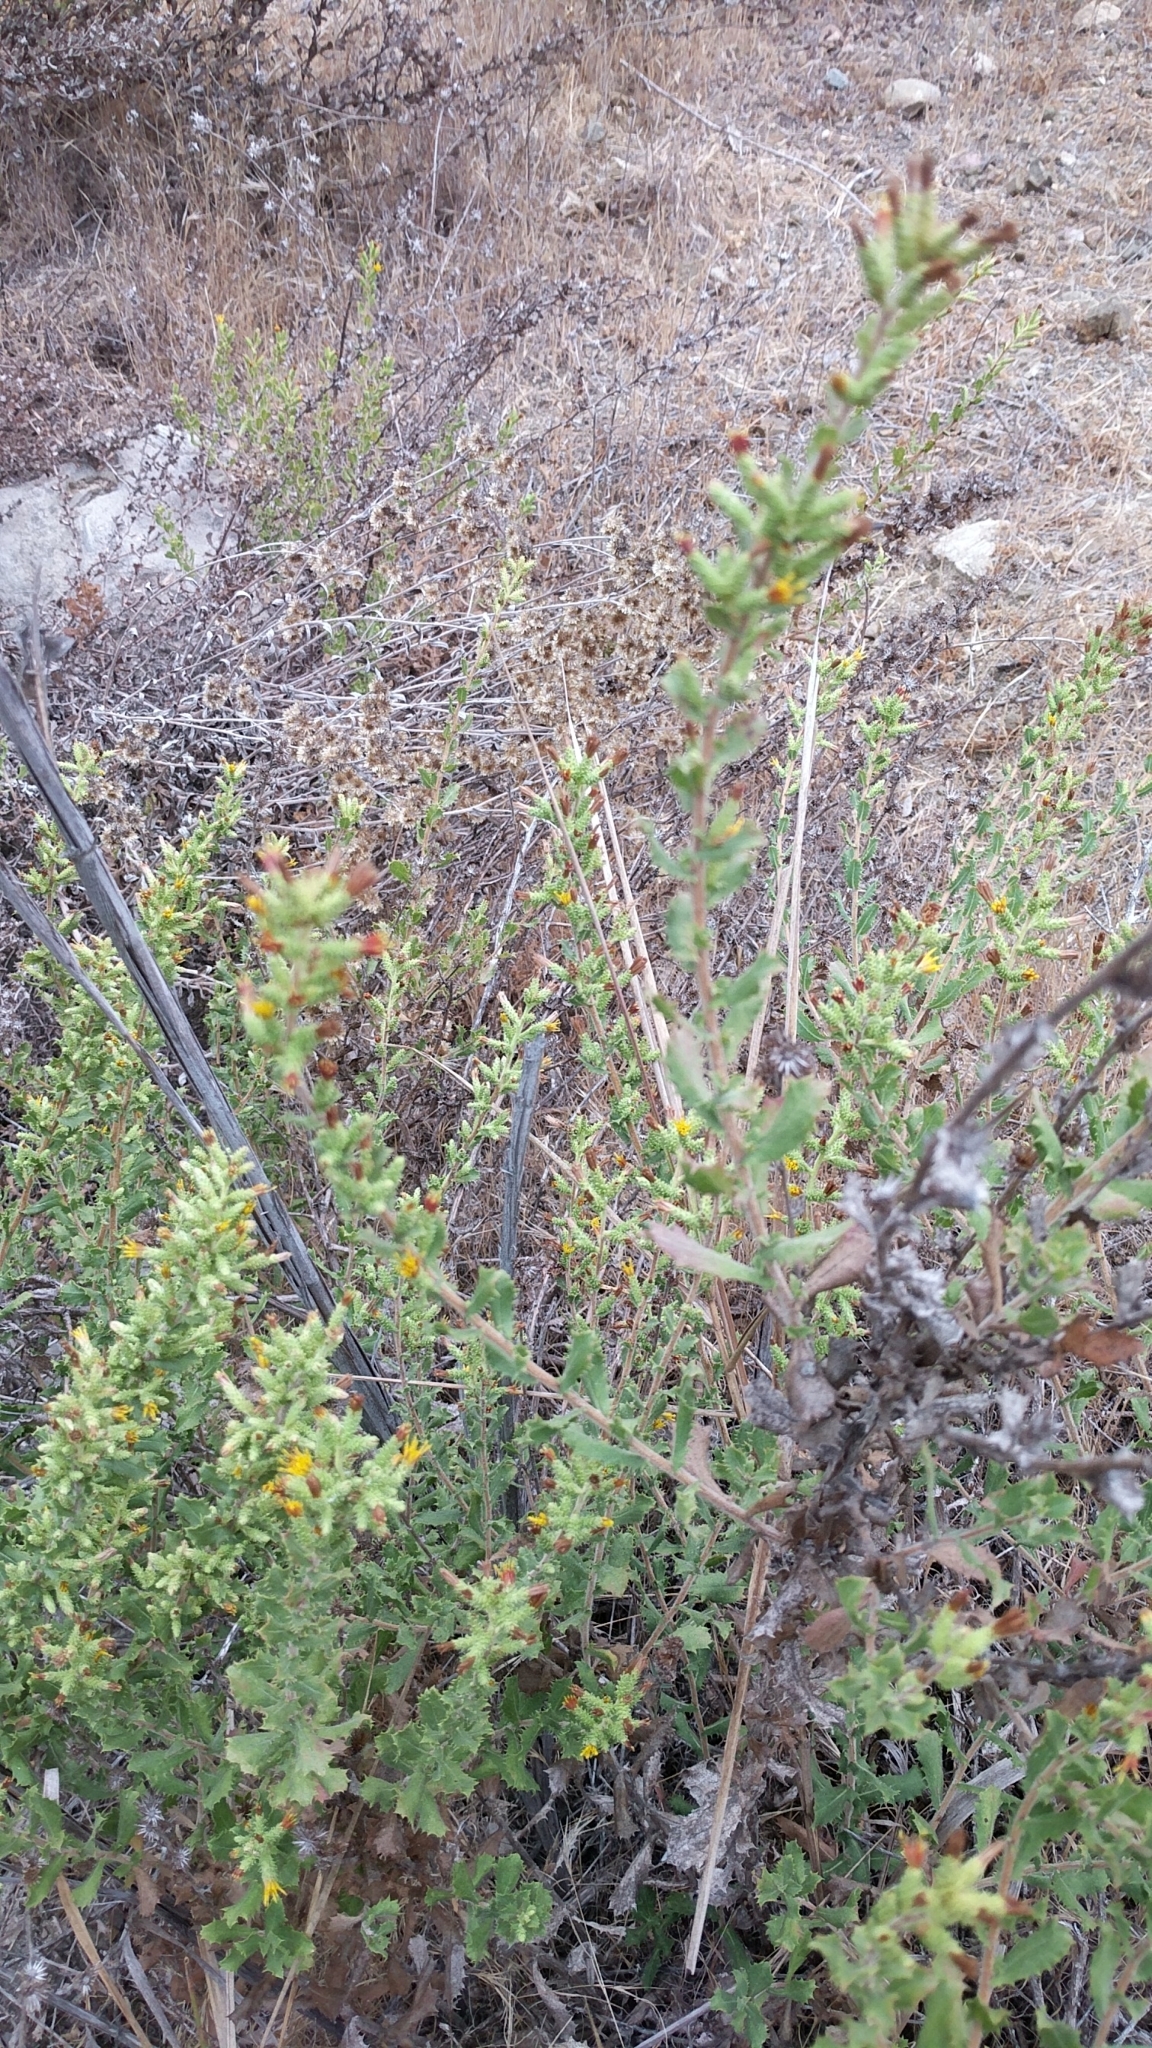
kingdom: Plantae
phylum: Tracheophyta
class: Magnoliopsida
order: Asterales
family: Asteraceae
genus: Hazardia
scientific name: Hazardia squarrosa
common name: Saw-tooth goldenbush
